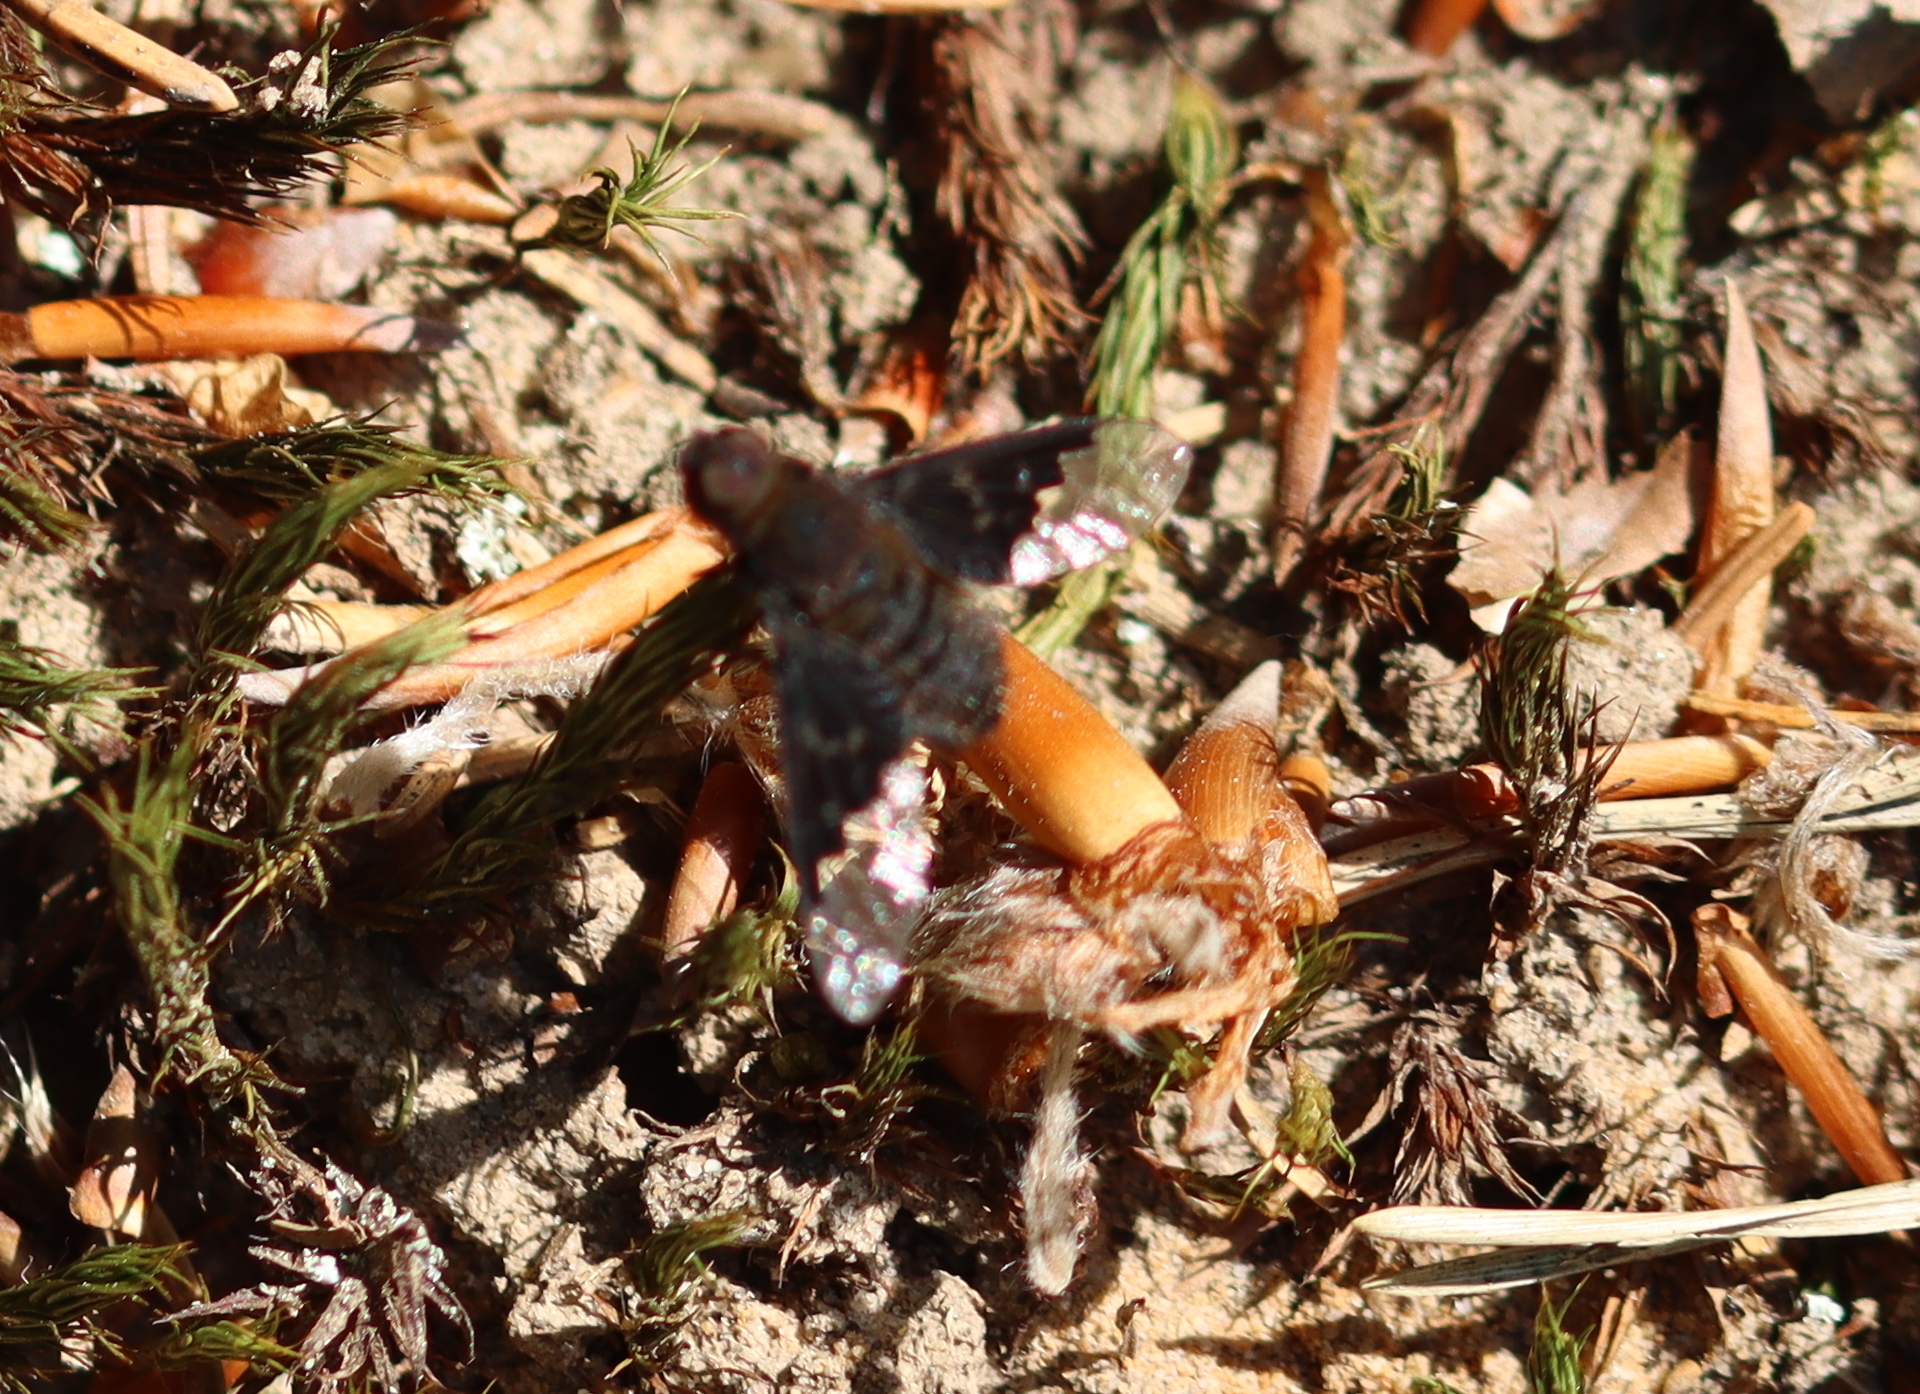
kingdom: Animalia
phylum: Arthropoda
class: Insecta
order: Diptera
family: Bombyliidae
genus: Hemipenthes
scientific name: Hemipenthes morio
